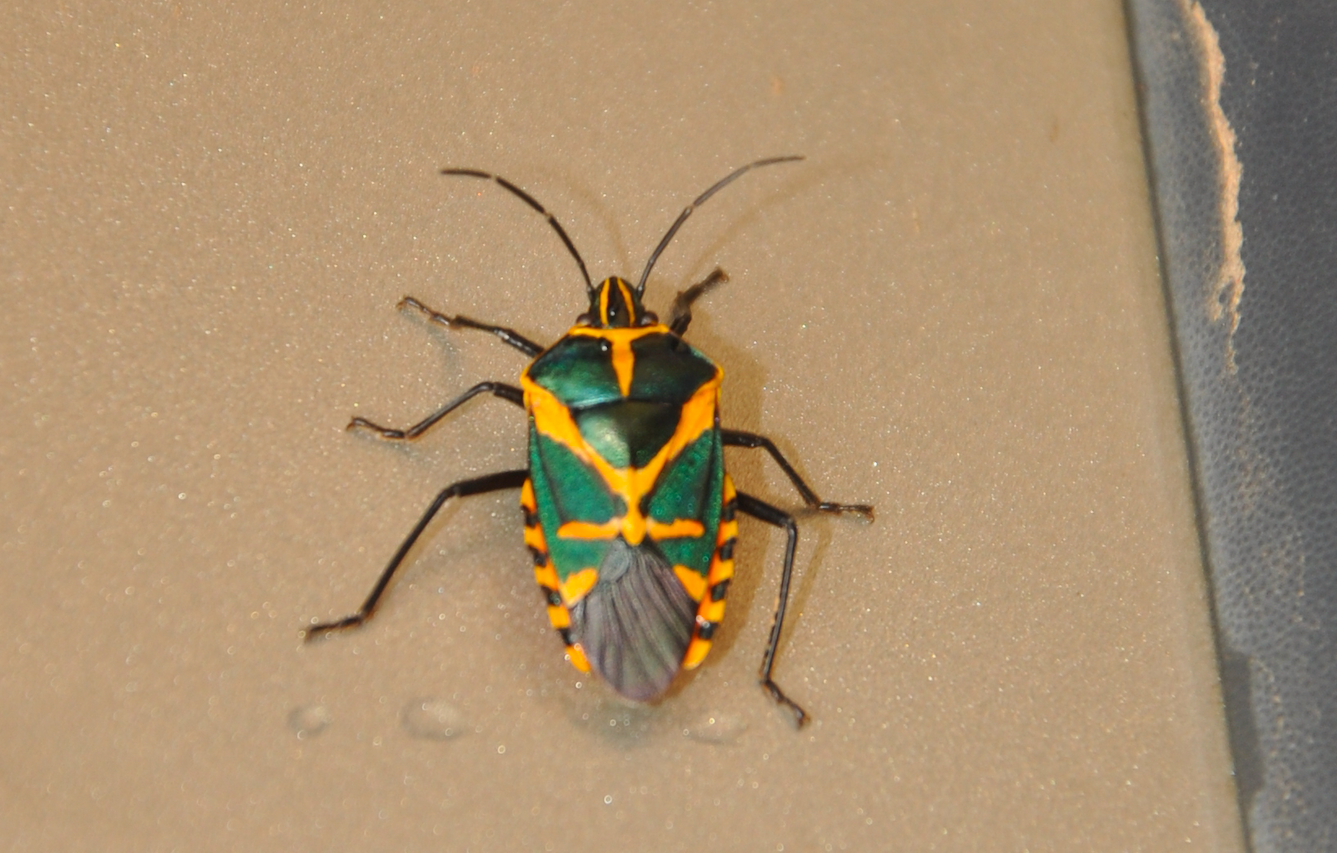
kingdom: Animalia
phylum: Arthropoda
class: Insecta
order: Hemiptera
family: Pentatomidae
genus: Agaeus
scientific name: Agaeus
